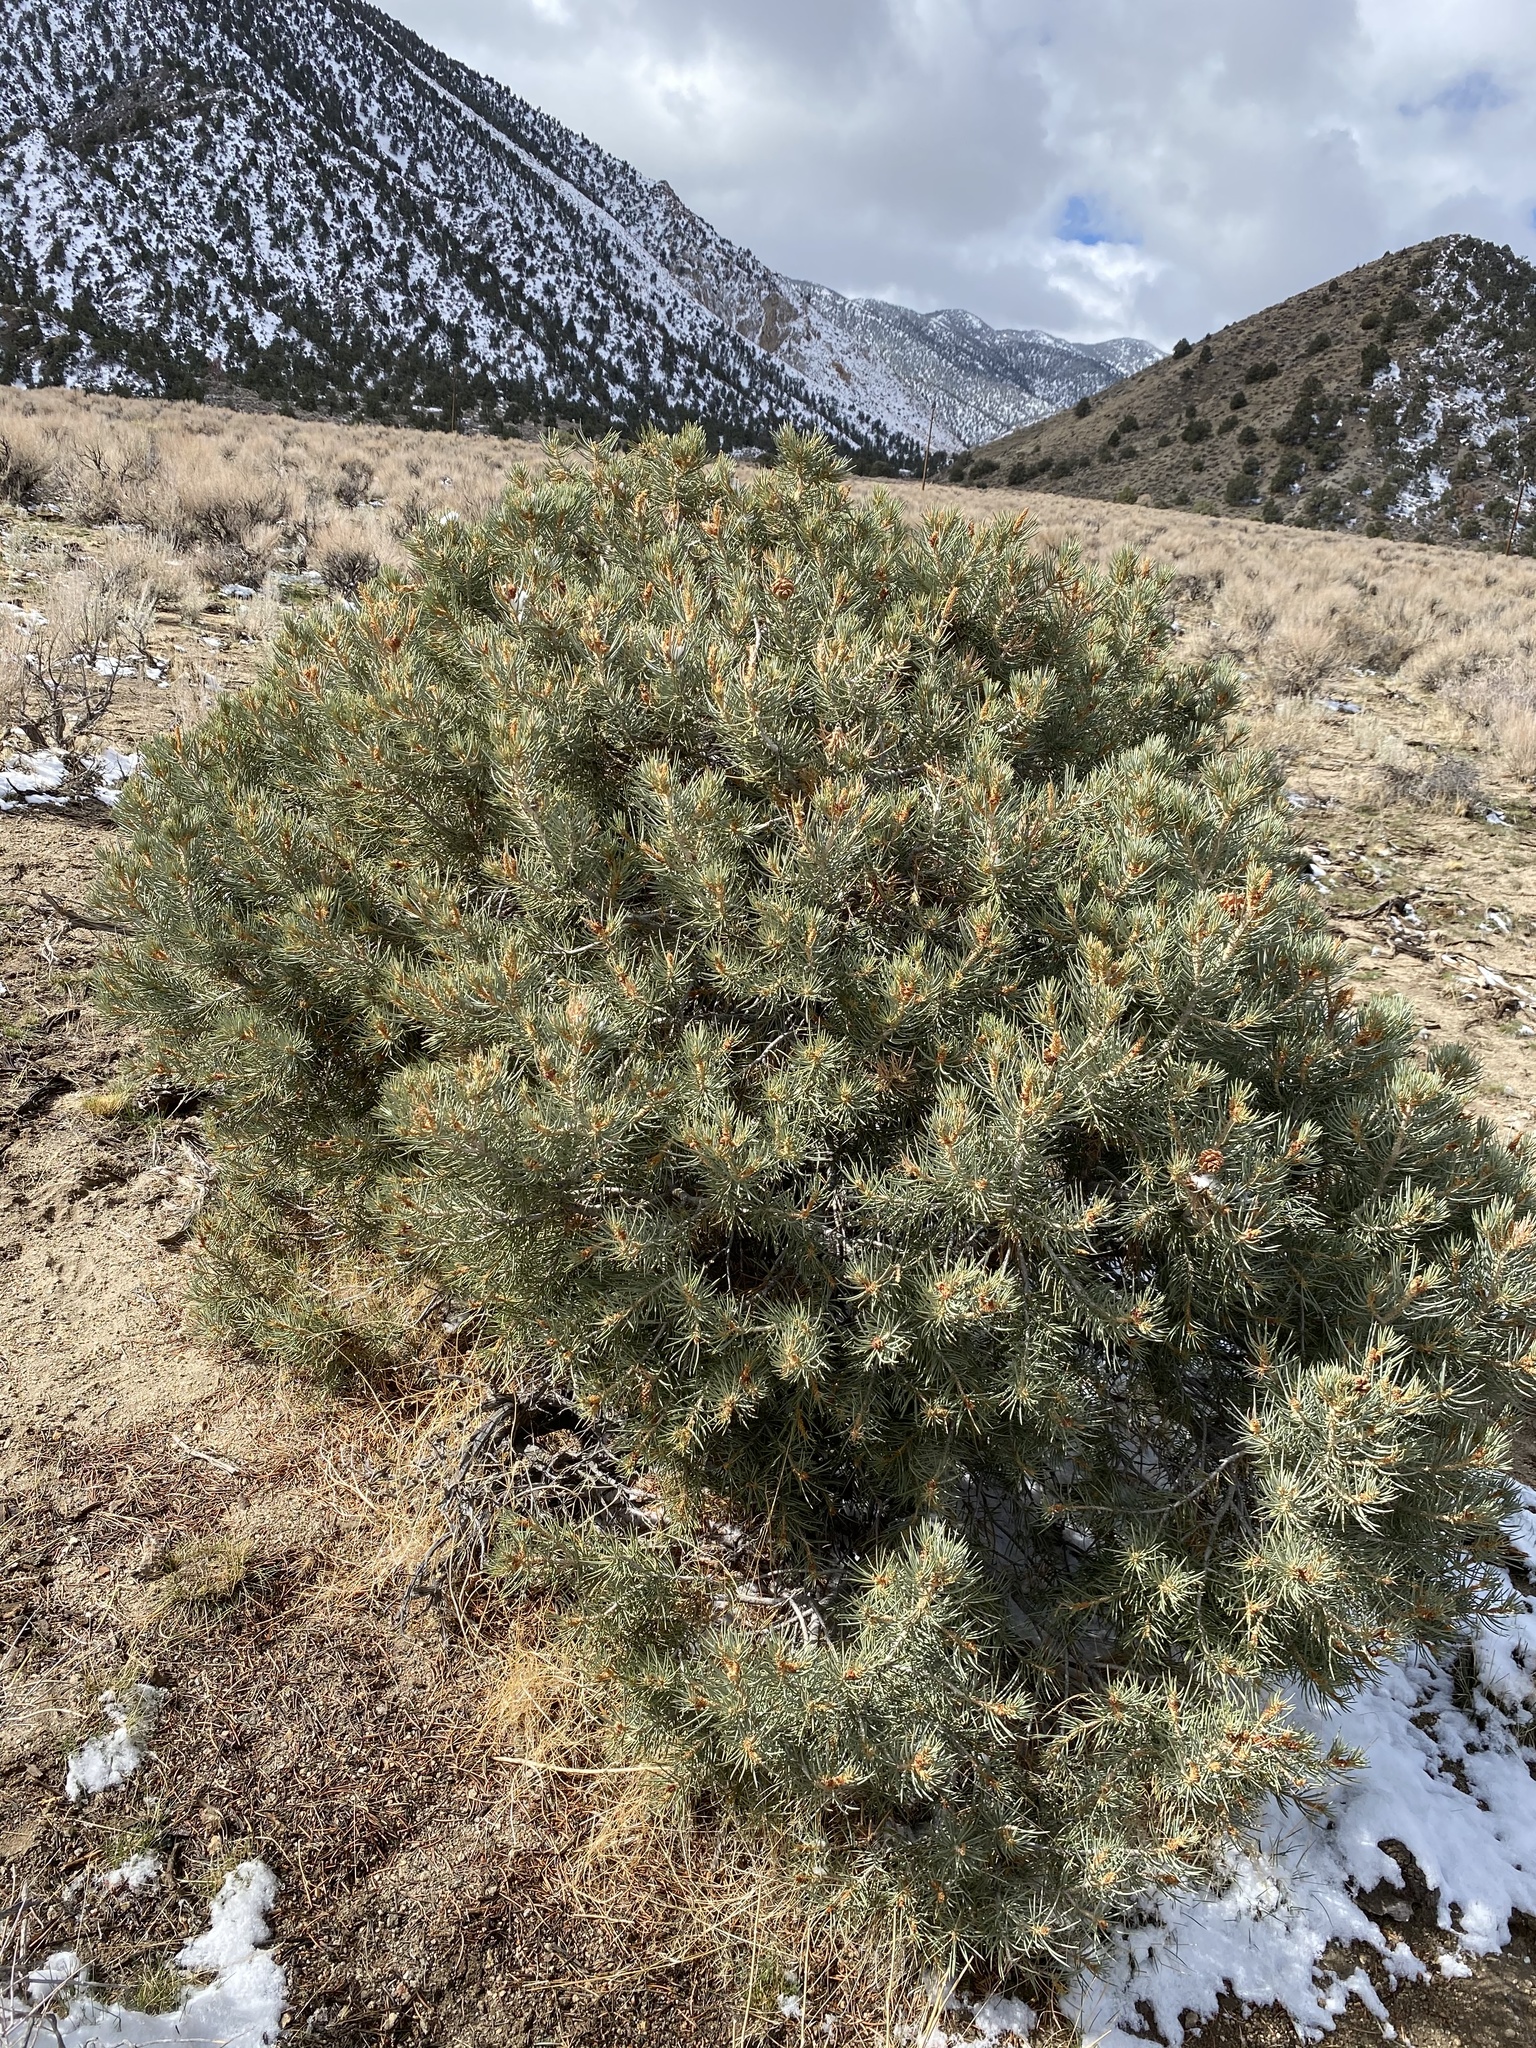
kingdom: Plantae
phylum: Tracheophyta
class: Pinopsida
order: Pinales
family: Pinaceae
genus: Pinus
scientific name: Pinus monophylla
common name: One-leaved nut pine
